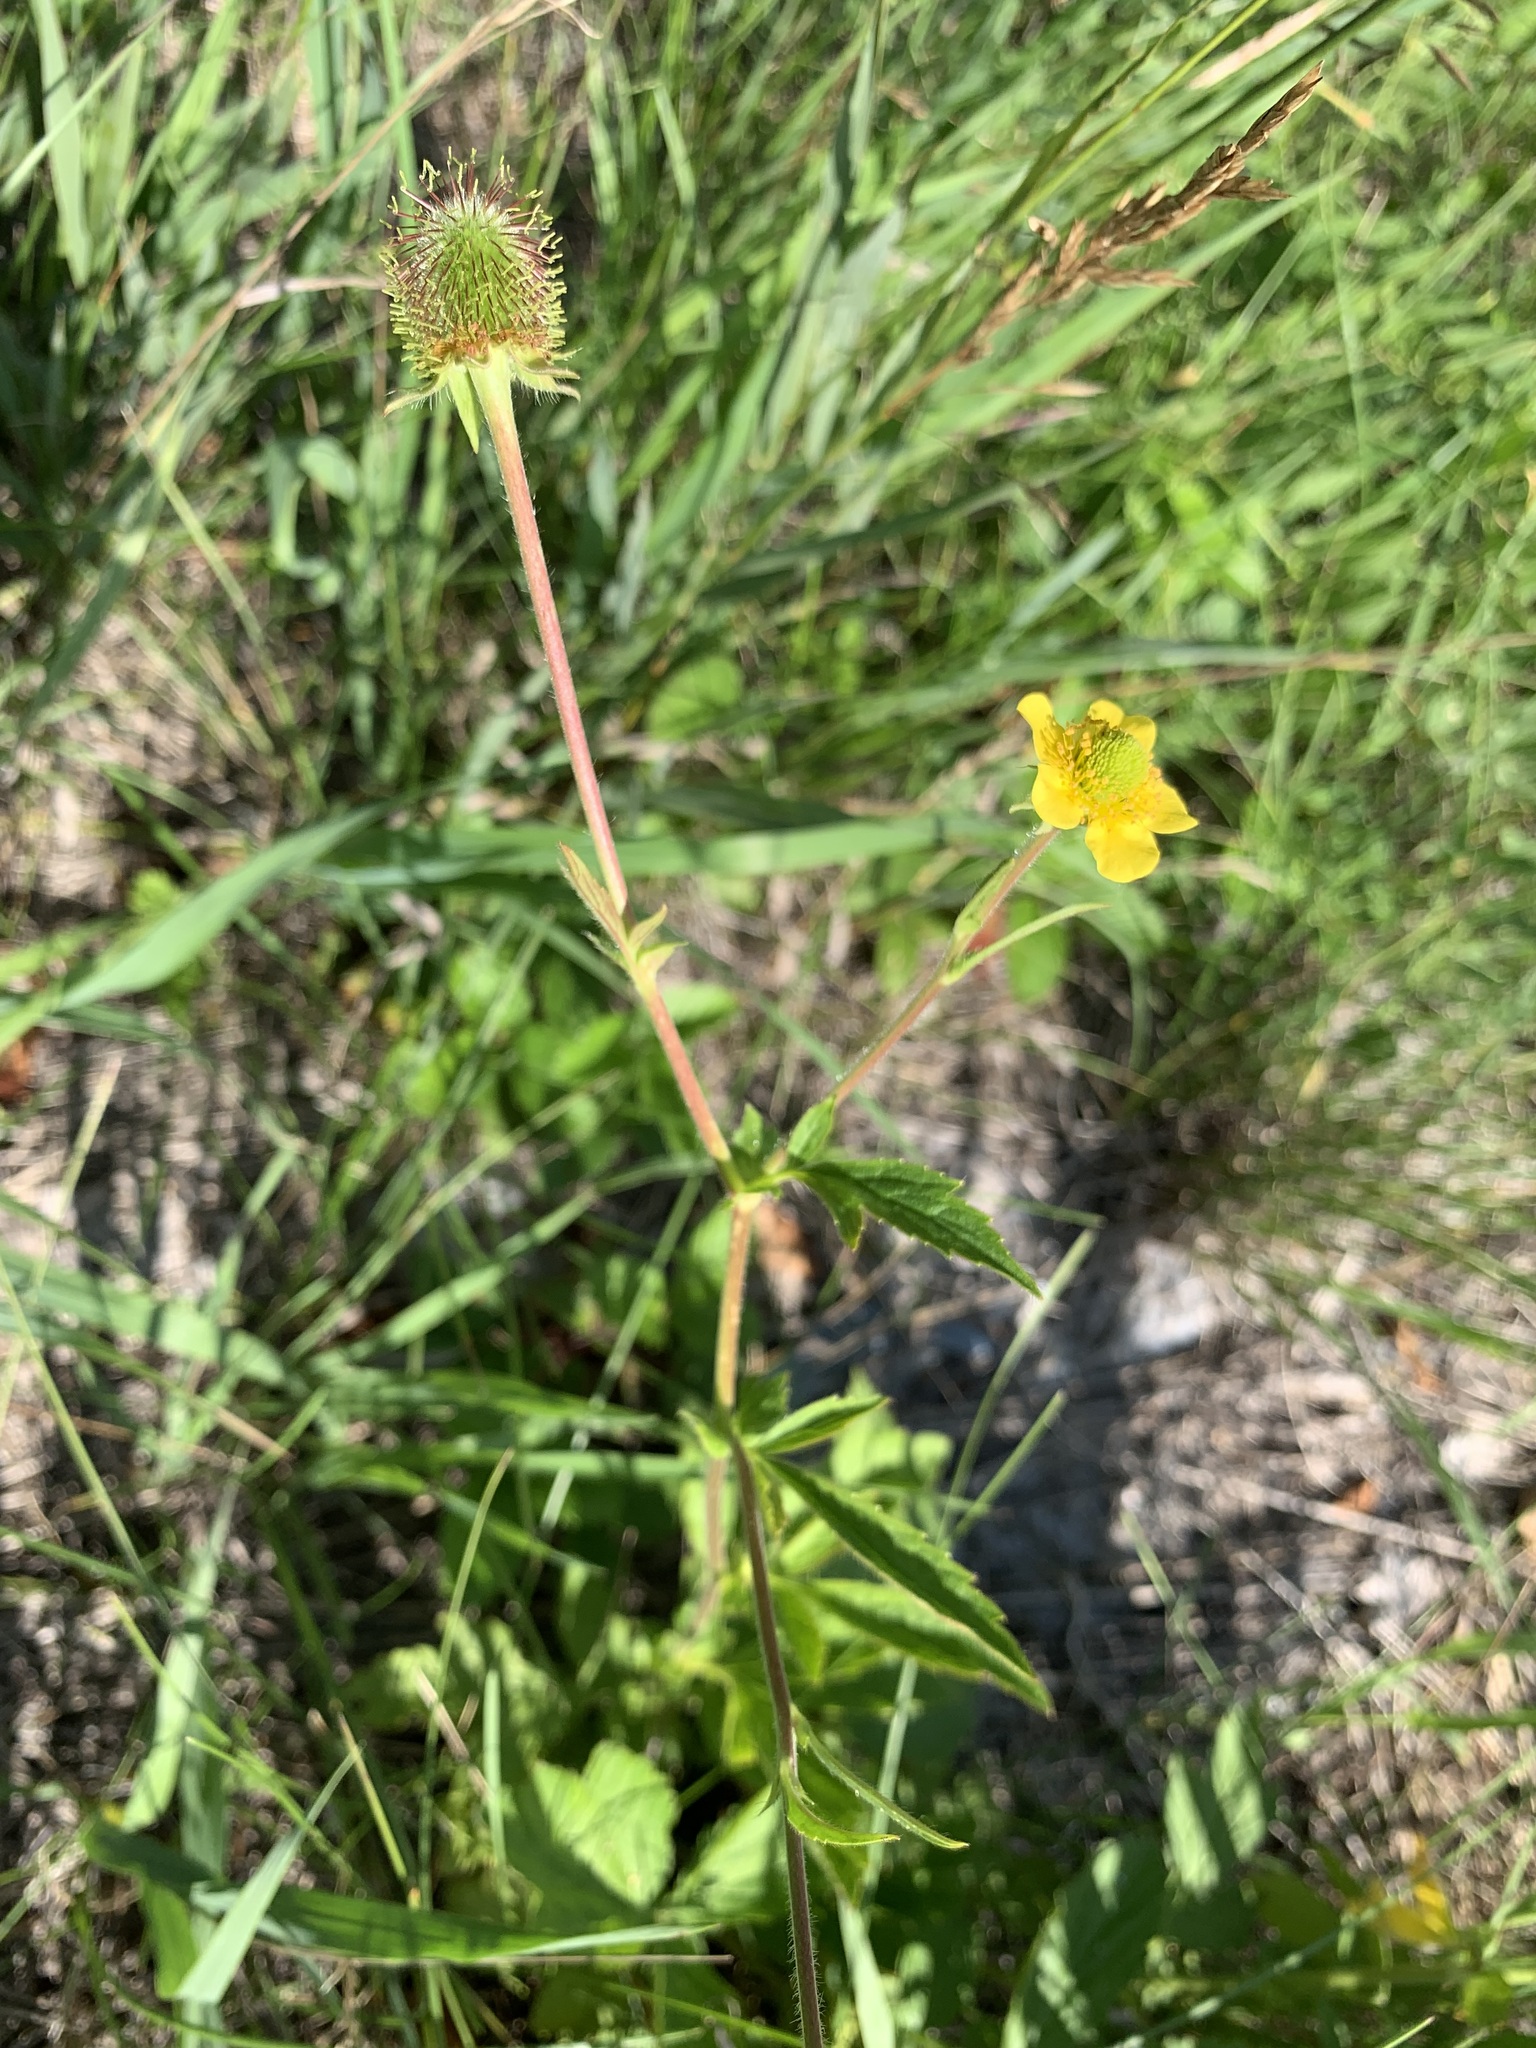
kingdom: Plantae
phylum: Tracheophyta
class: Magnoliopsida
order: Rosales
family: Rosaceae
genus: Geum
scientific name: Geum aleppicum
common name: Yellow avens
